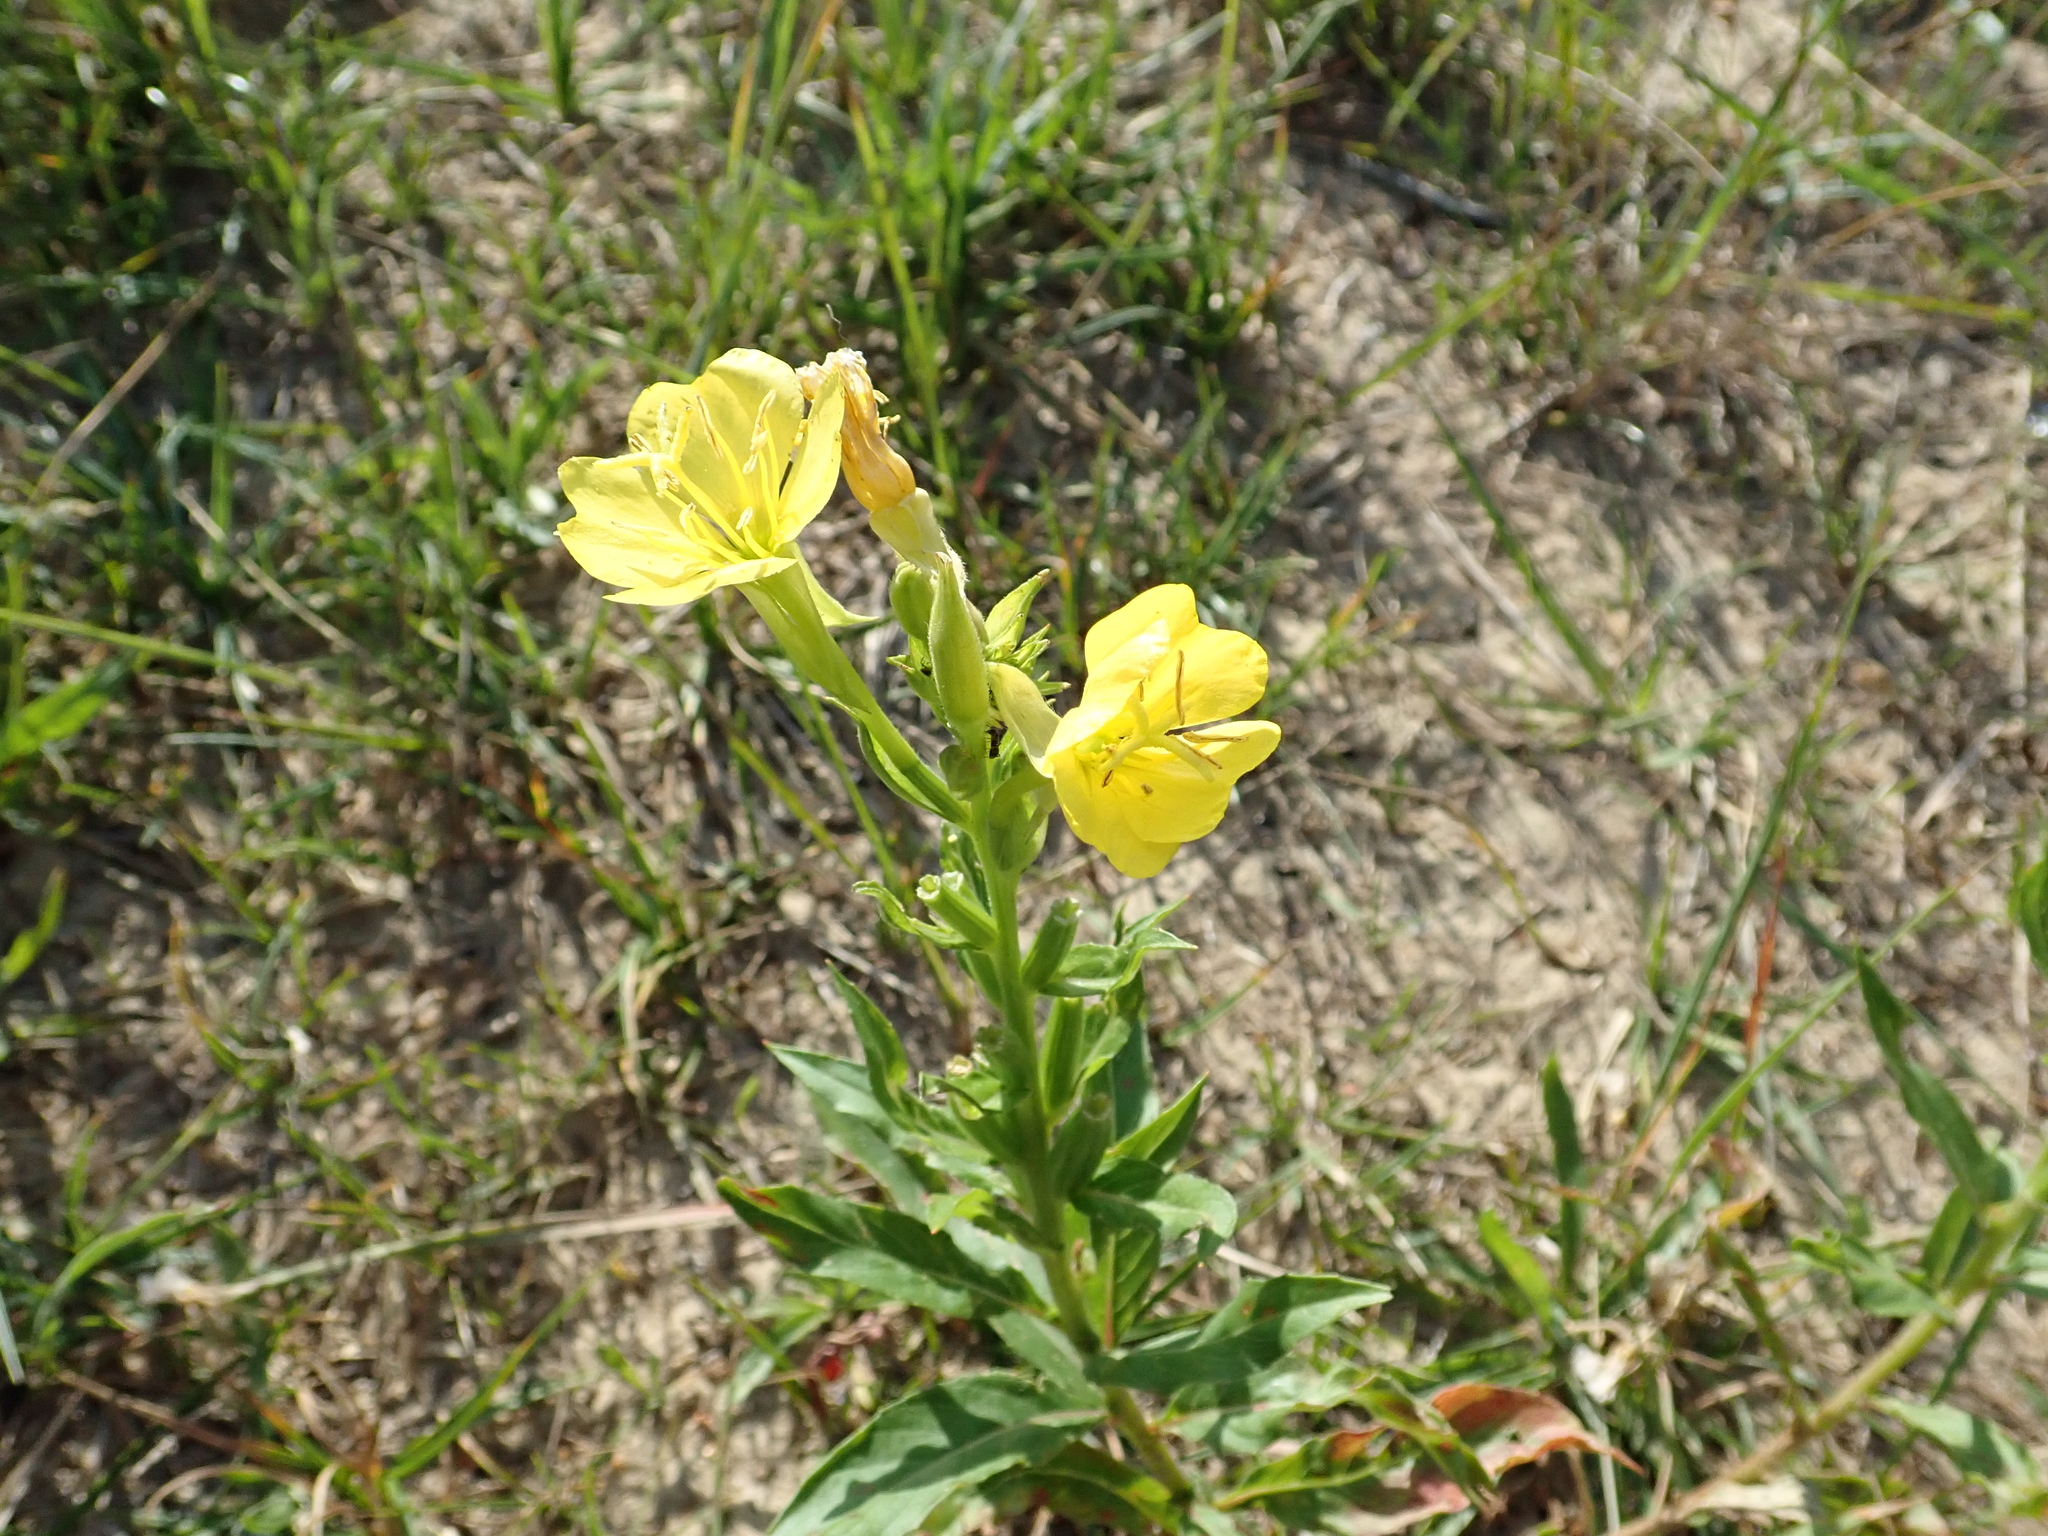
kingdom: Plantae
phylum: Tracheophyta
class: Magnoliopsida
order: Myrtales
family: Onagraceae
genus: Oenothera
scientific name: Oenothera biennis
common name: Common evening-primrose
